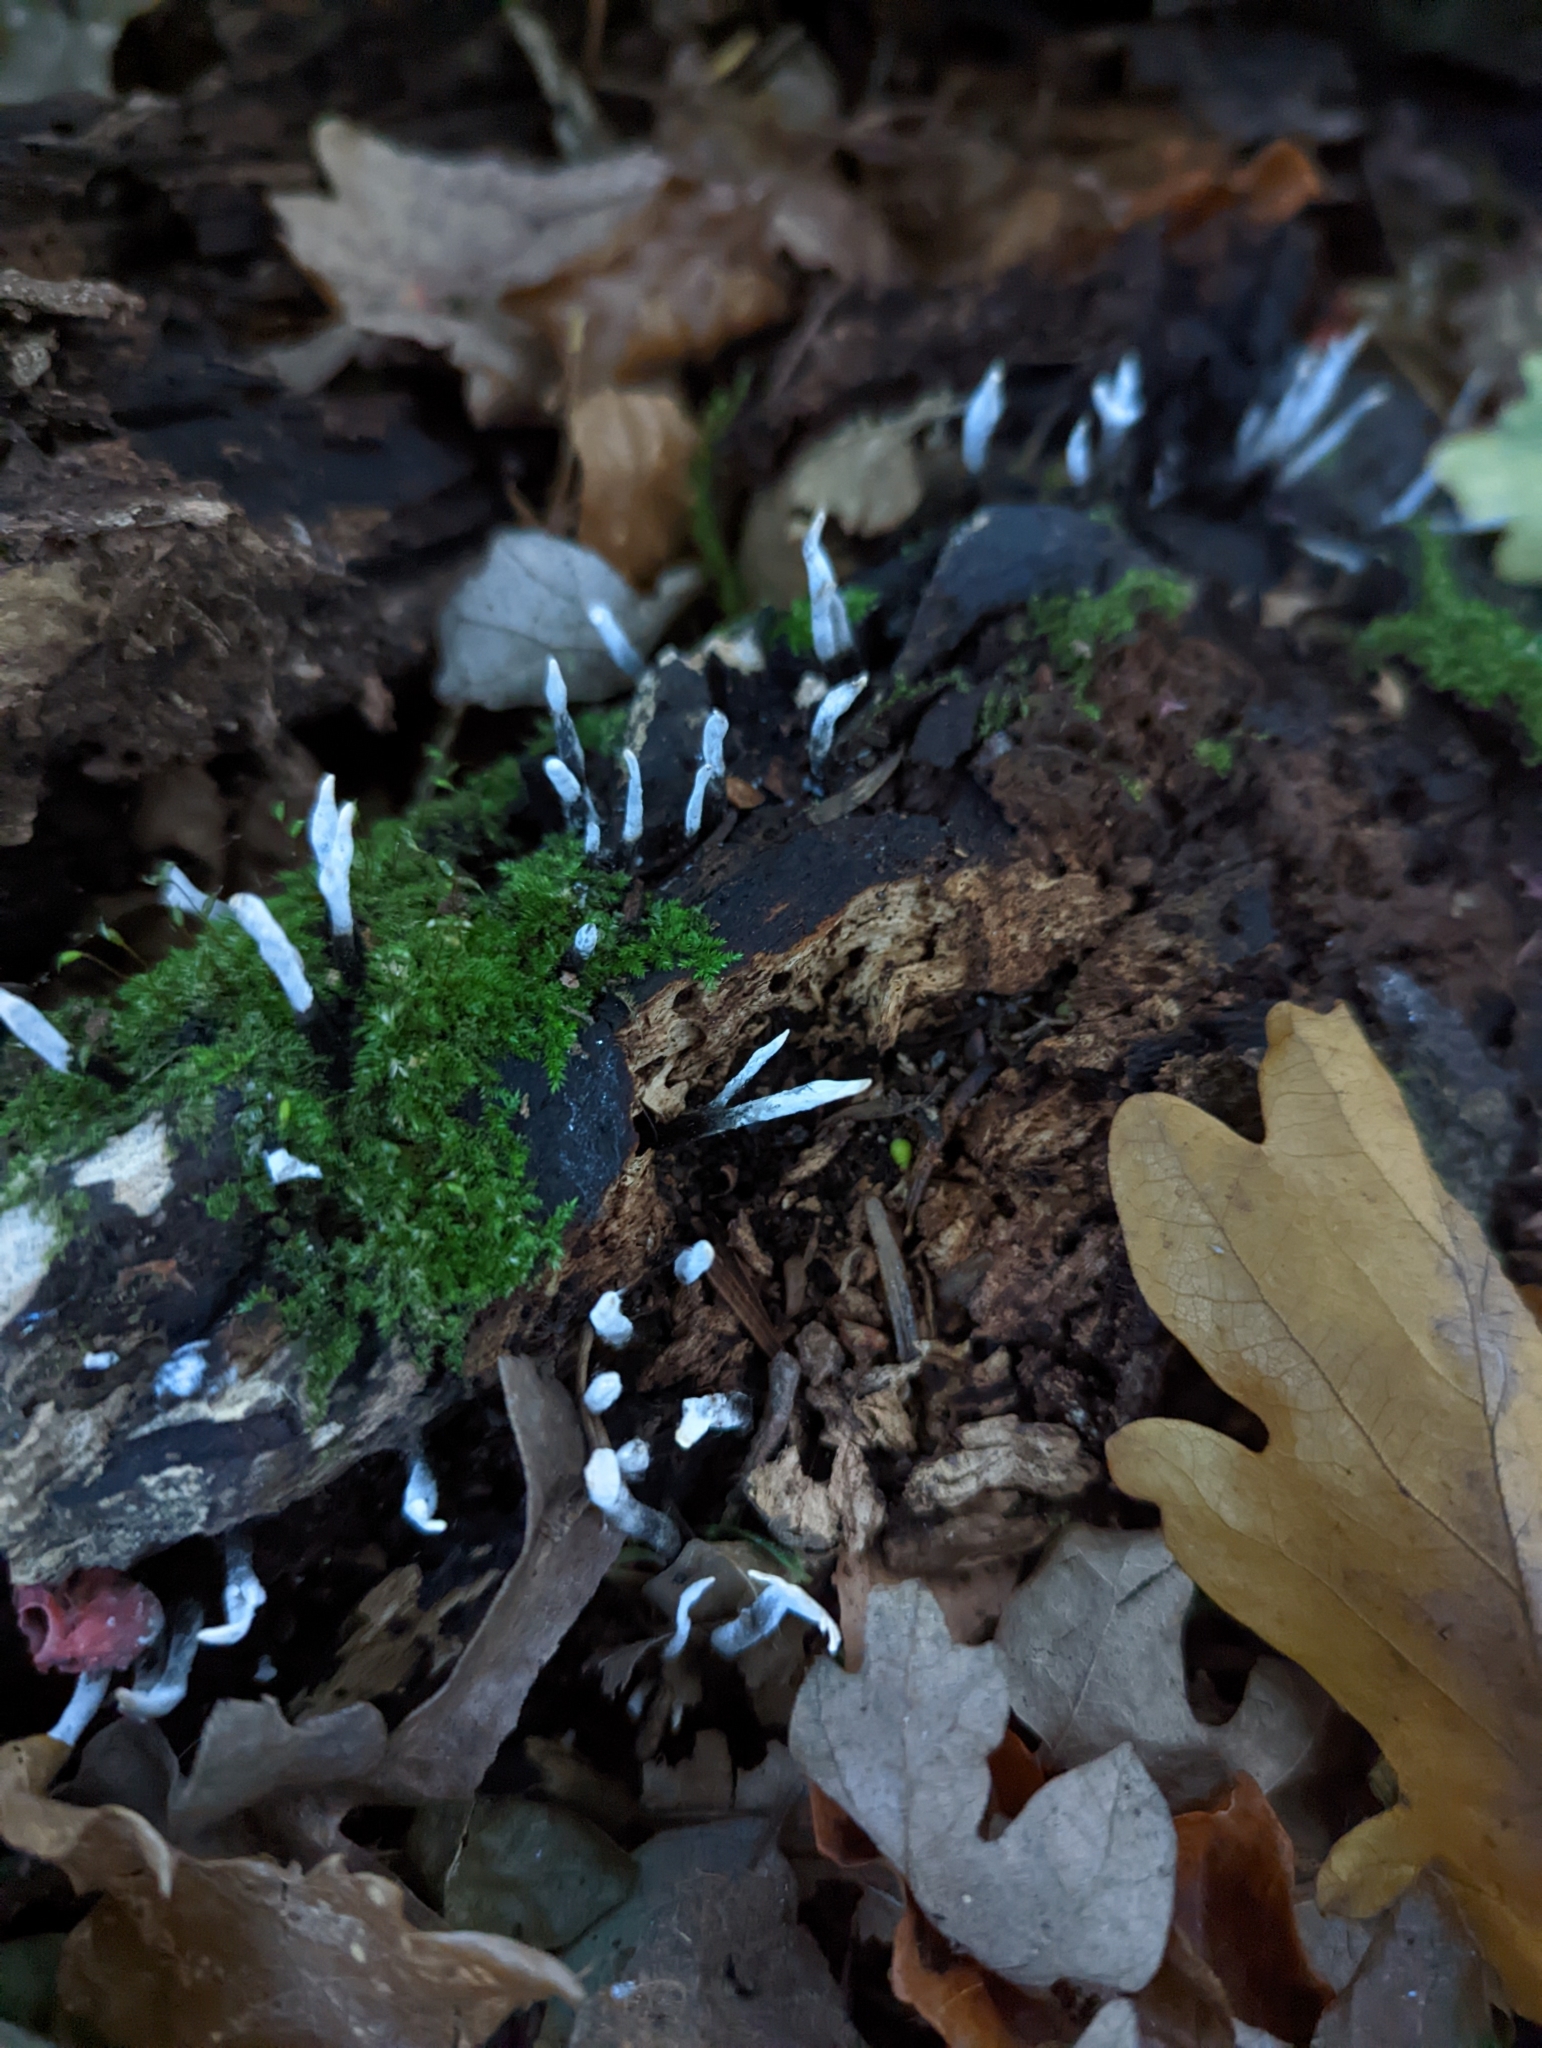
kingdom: Fungi
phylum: Ascomycota
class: Sordariomycetes
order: Xylariales
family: Xylariaceae
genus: Xylaria
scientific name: Xylaria hypoxylon
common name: Candle-snuff fungus
